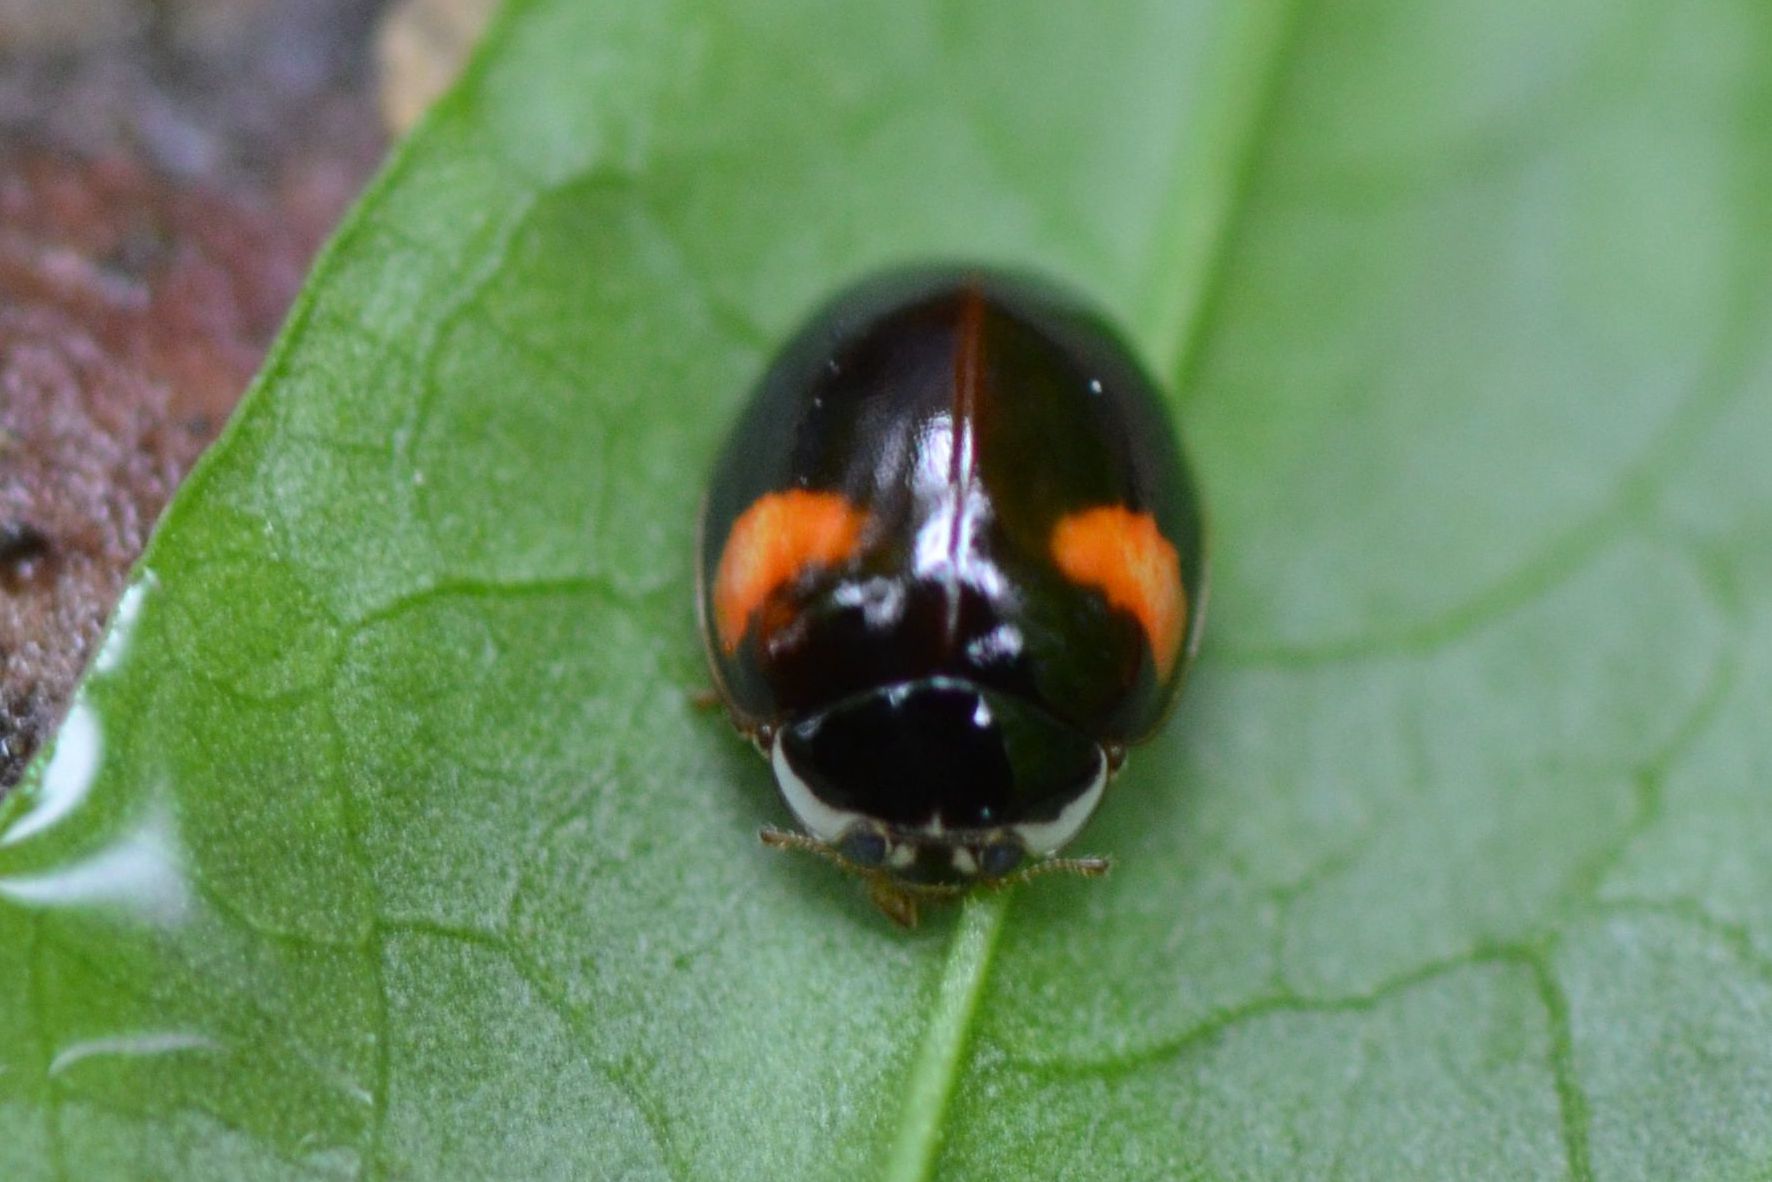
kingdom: Animalia
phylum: Arthropoda
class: Insecta
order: Coleoptera
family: Coccinellidae
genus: Adalia
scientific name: Adalia decempunctata
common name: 10-spot ladybird
